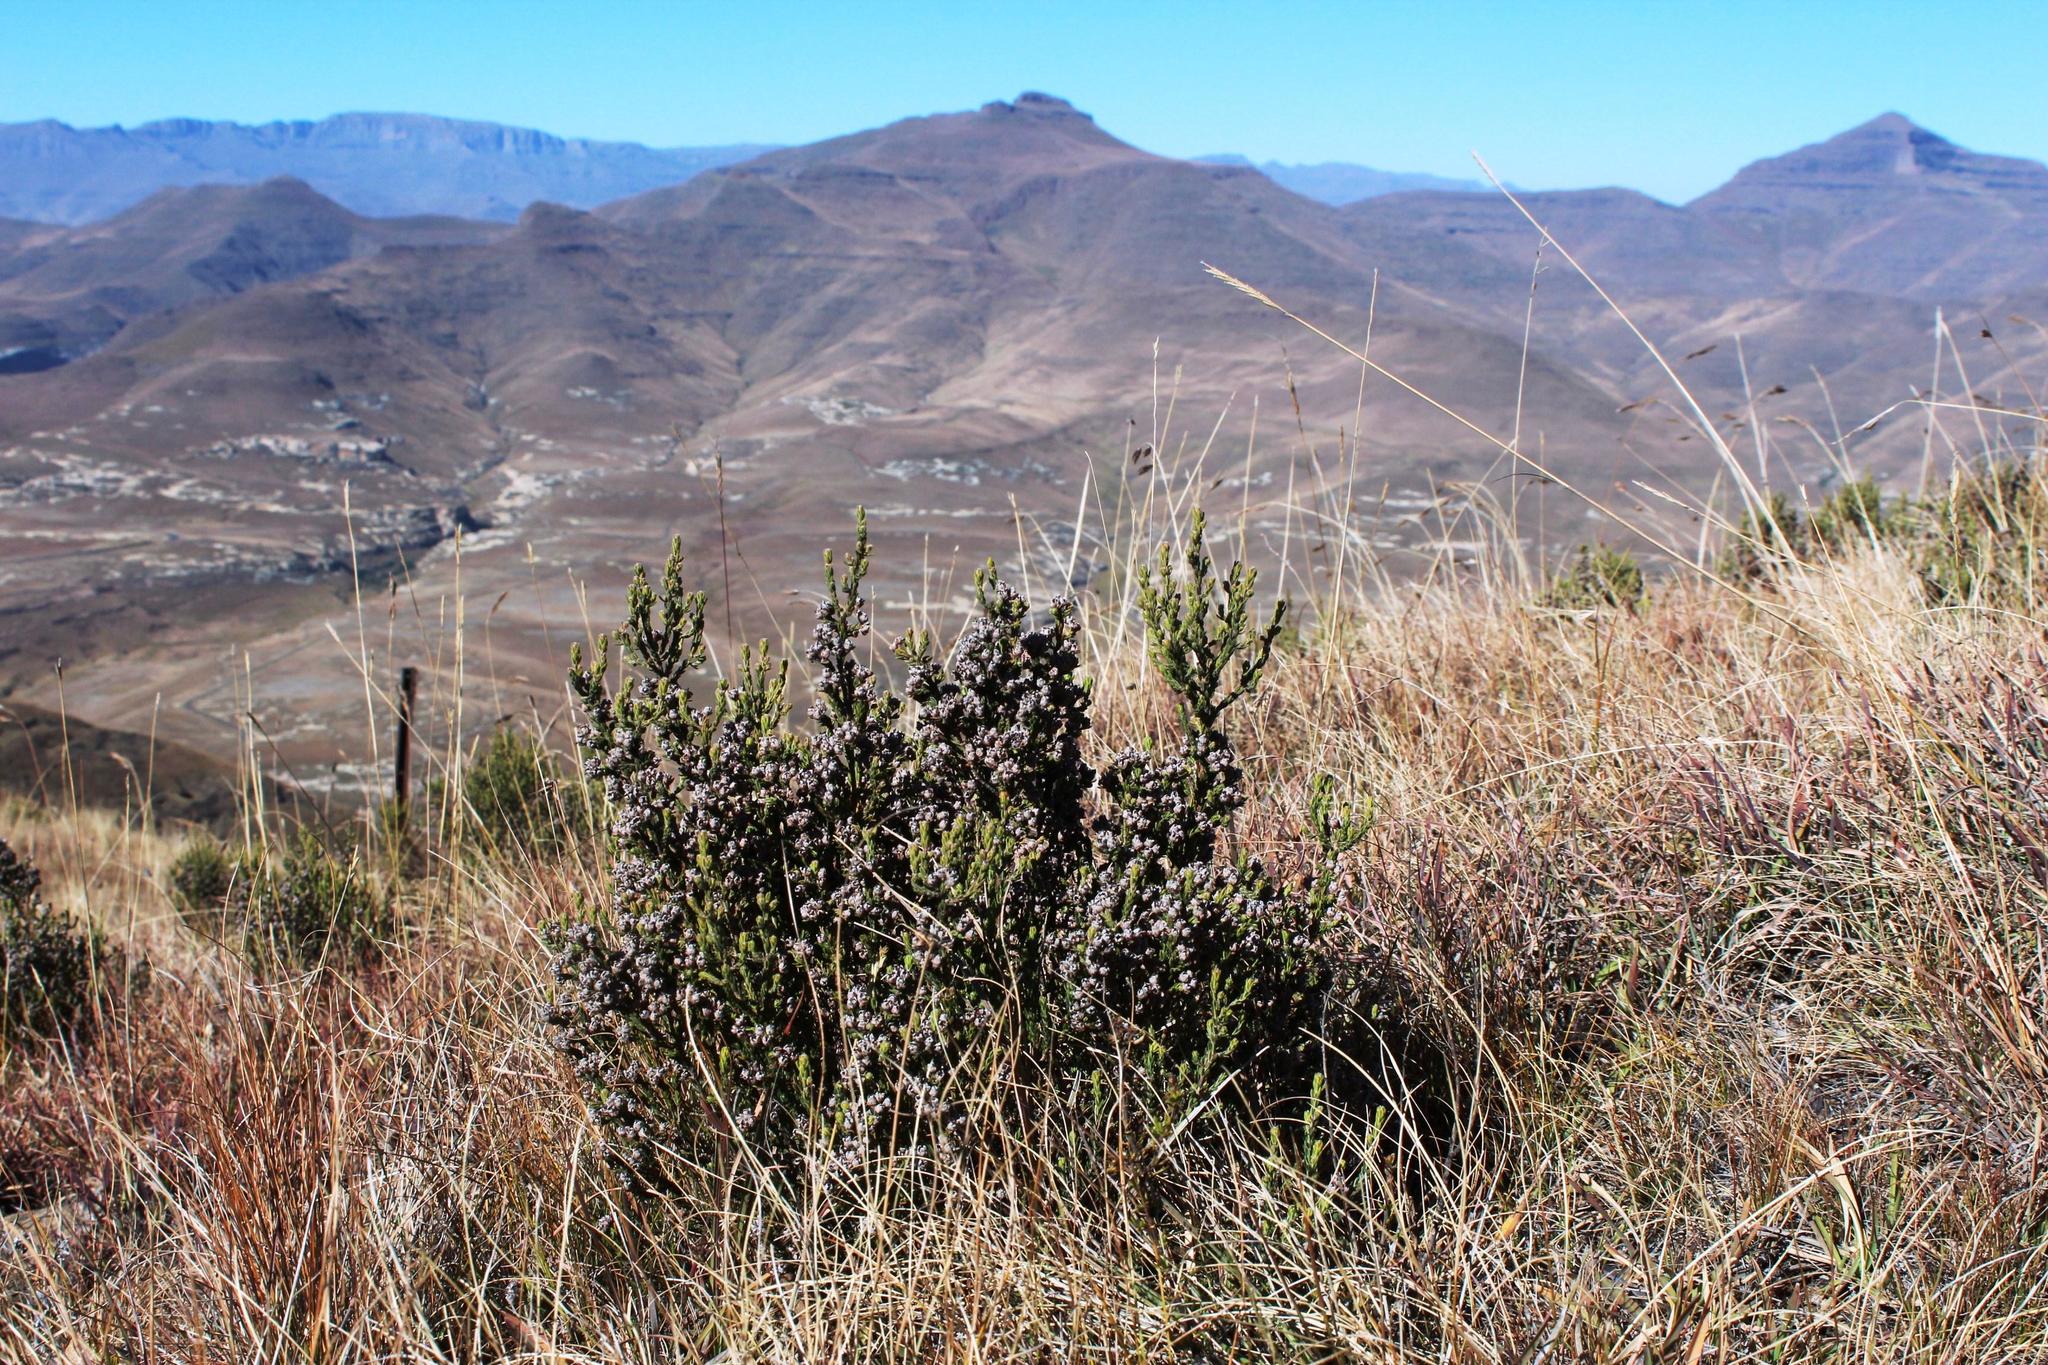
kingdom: Plantae
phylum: Tracheophyta
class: Magnoliopsida
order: Ericales
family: Ericaceae
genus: Erica
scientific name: Erica algida
